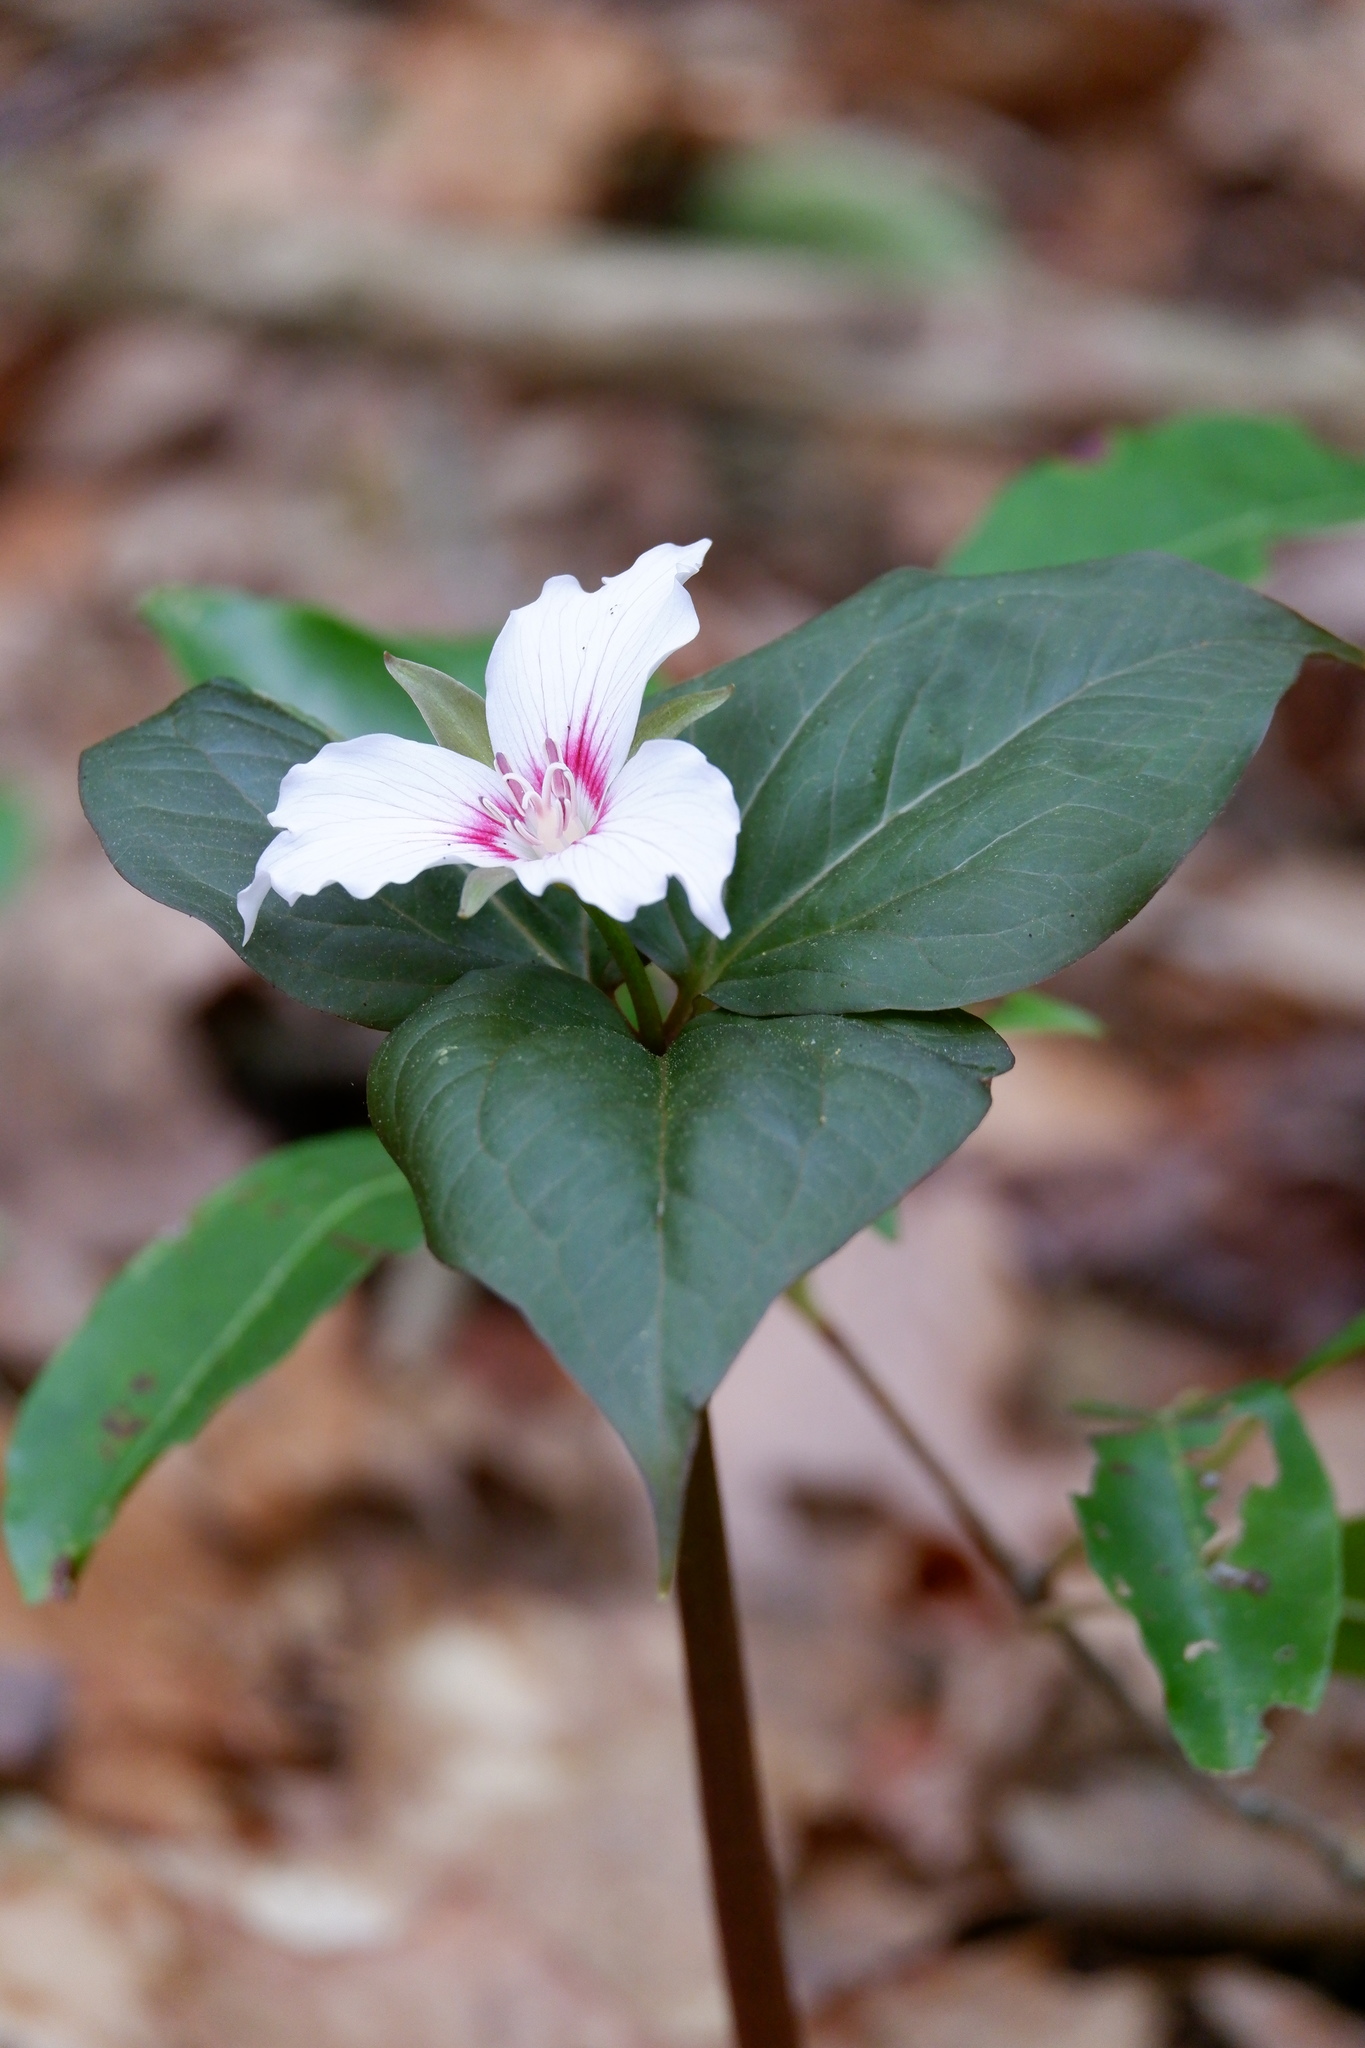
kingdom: Plantae
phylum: Tracheophyta
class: Liliopsida
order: Liliales
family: Melanthiaceae
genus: Trillium
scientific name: Trillium undulatum
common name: Paint trillium
